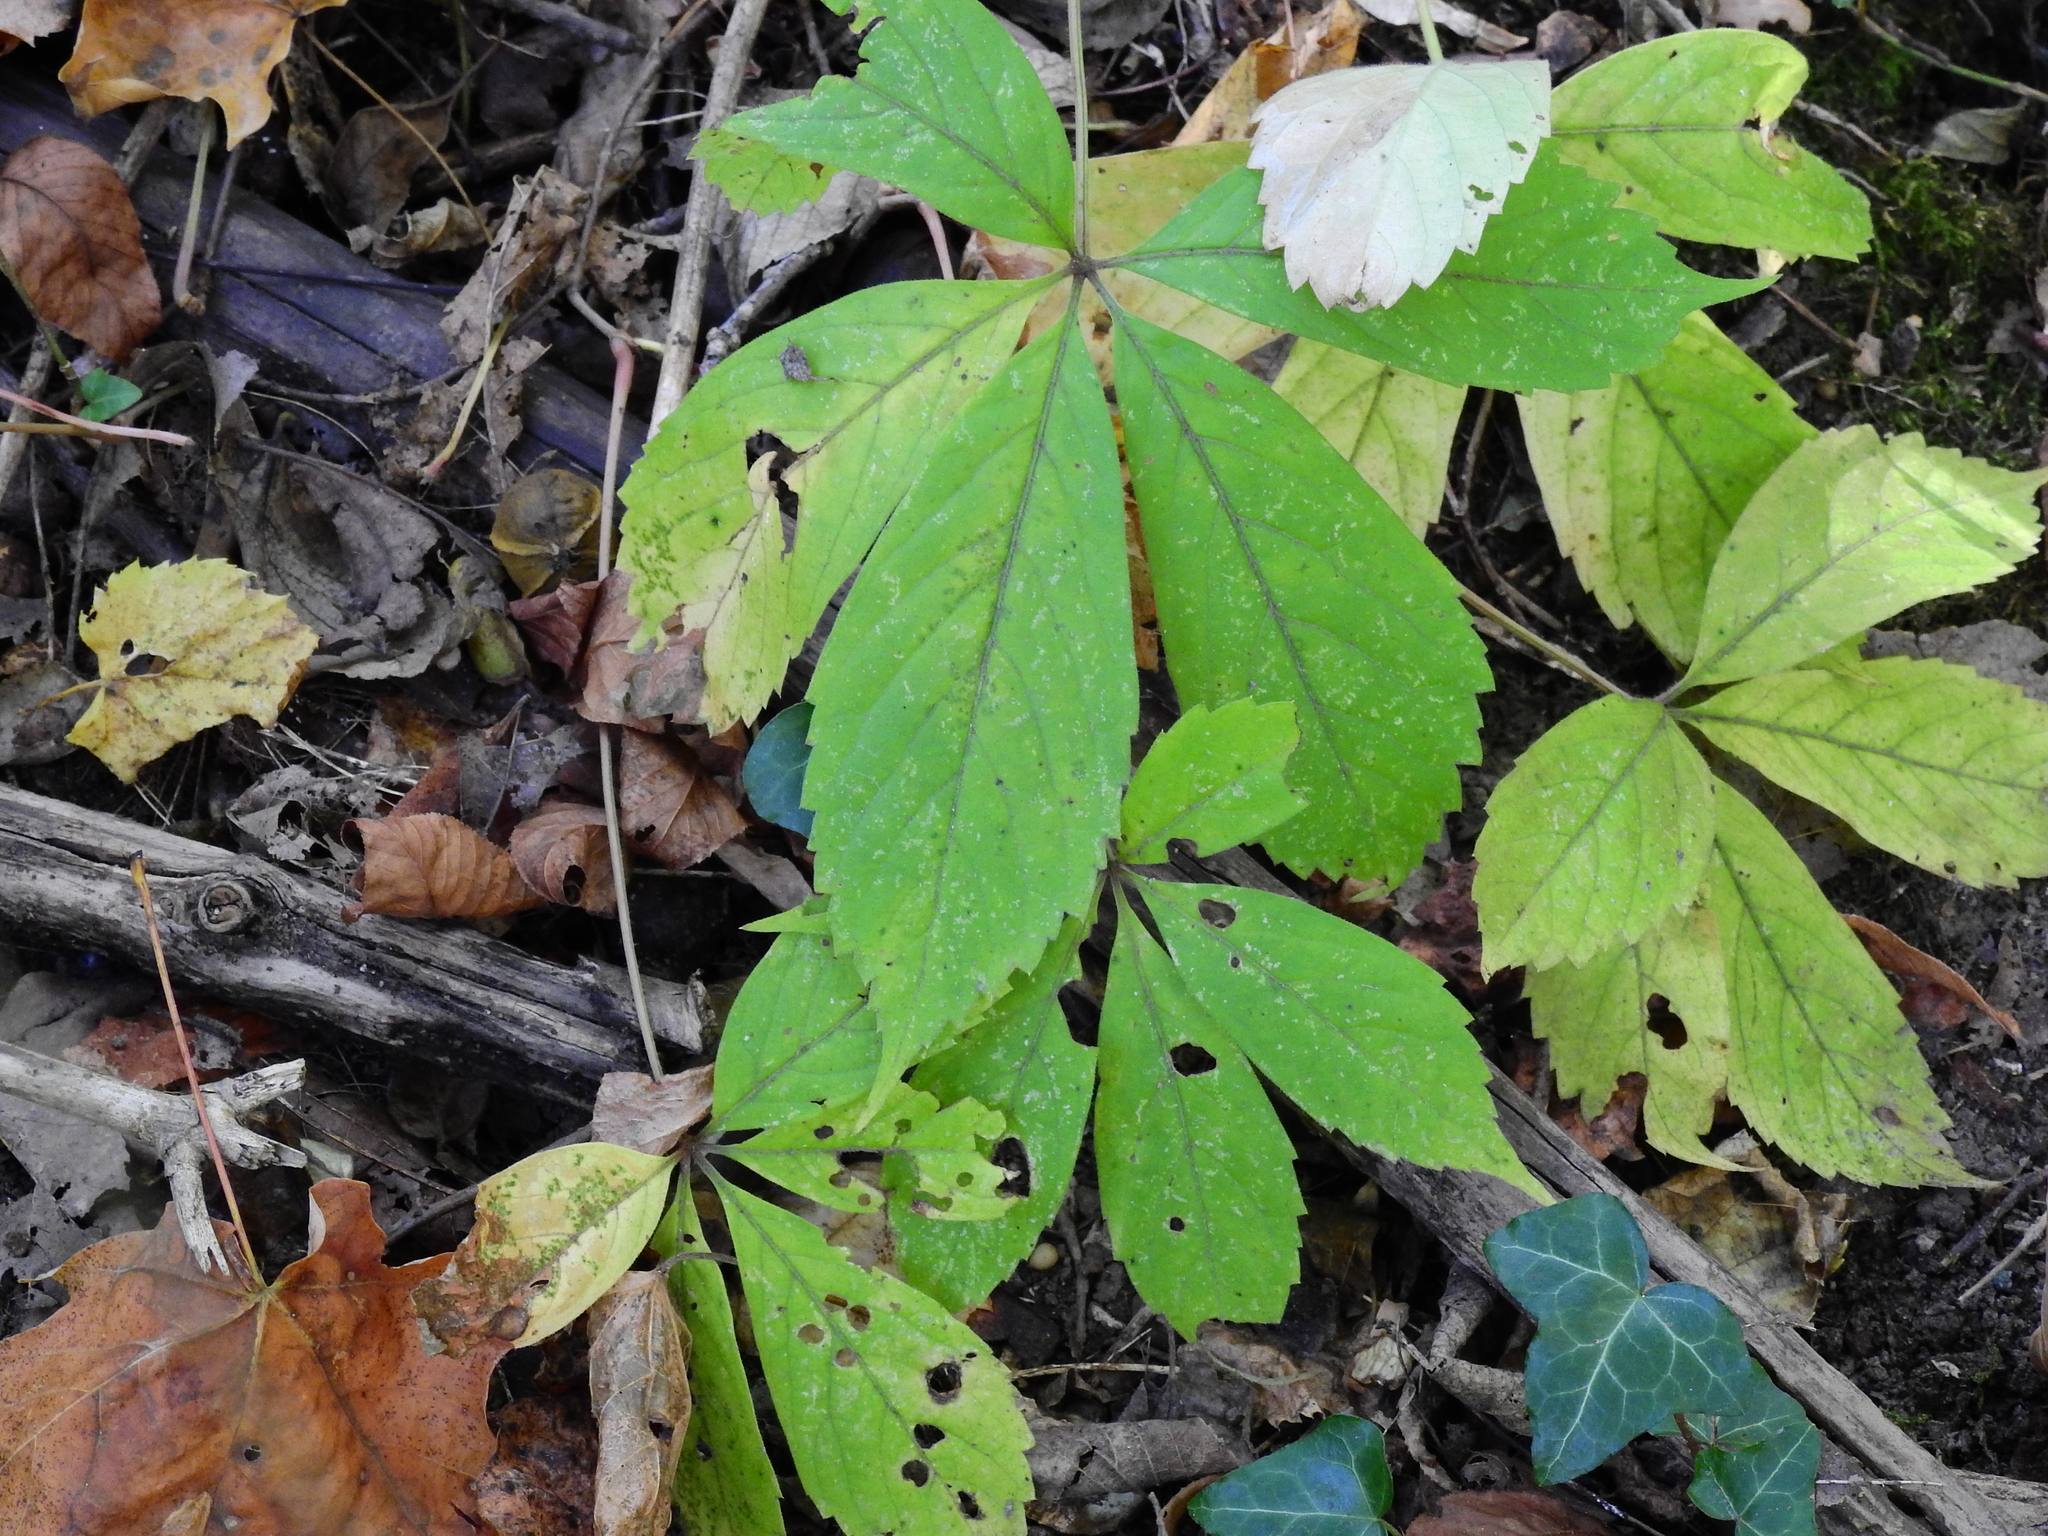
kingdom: Plantae
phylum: Tracheophyta
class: Magnoliopsida
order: Vitales
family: Vitaceae
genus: Parthenocissus
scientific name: Parthenocissus quinquefolia
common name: Virginia-creeper
